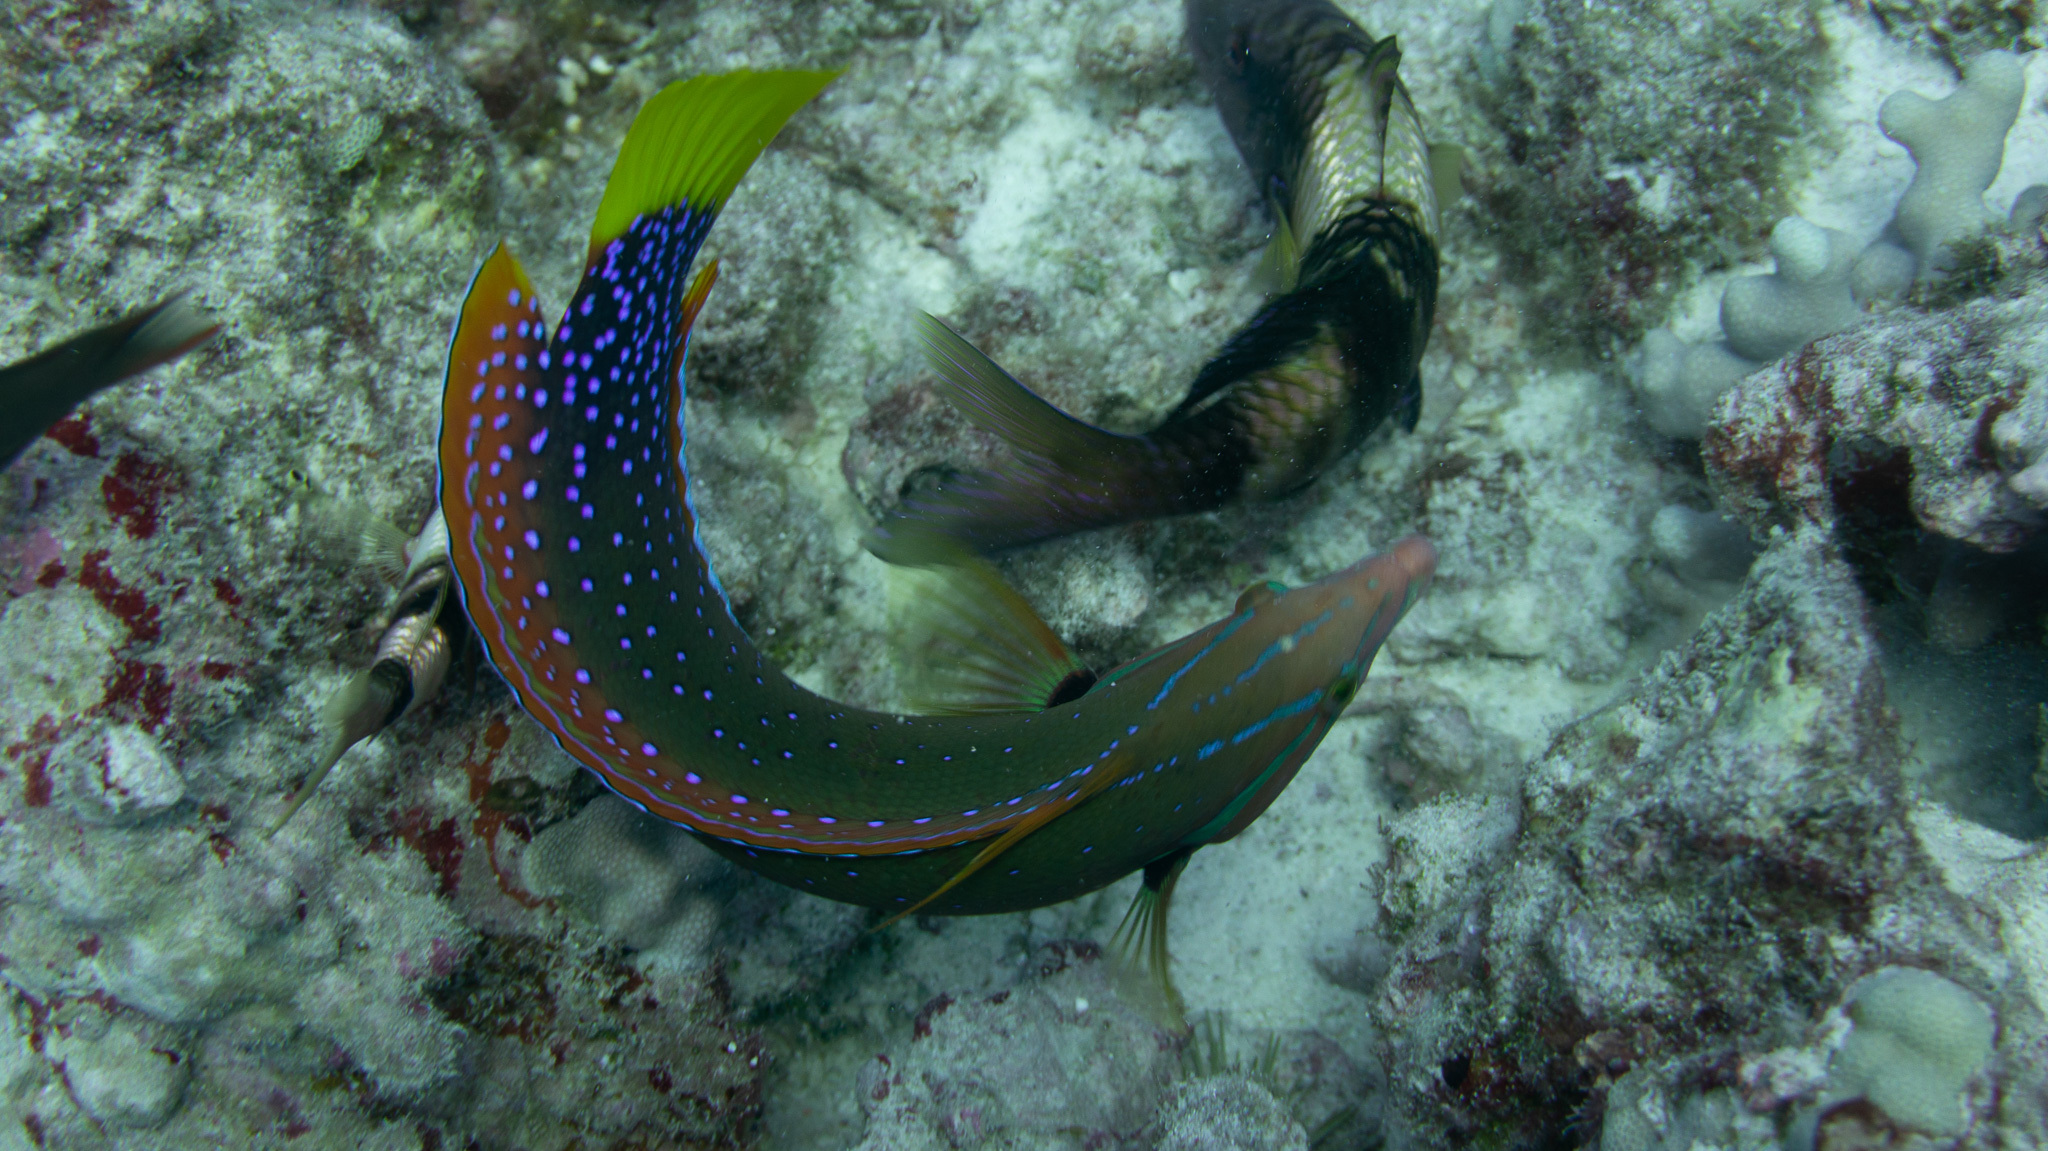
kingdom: Animalia
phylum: Chordata
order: Perciformes
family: Labridae
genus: Coris
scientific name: Coris gaimard
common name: Yellowtail coris
